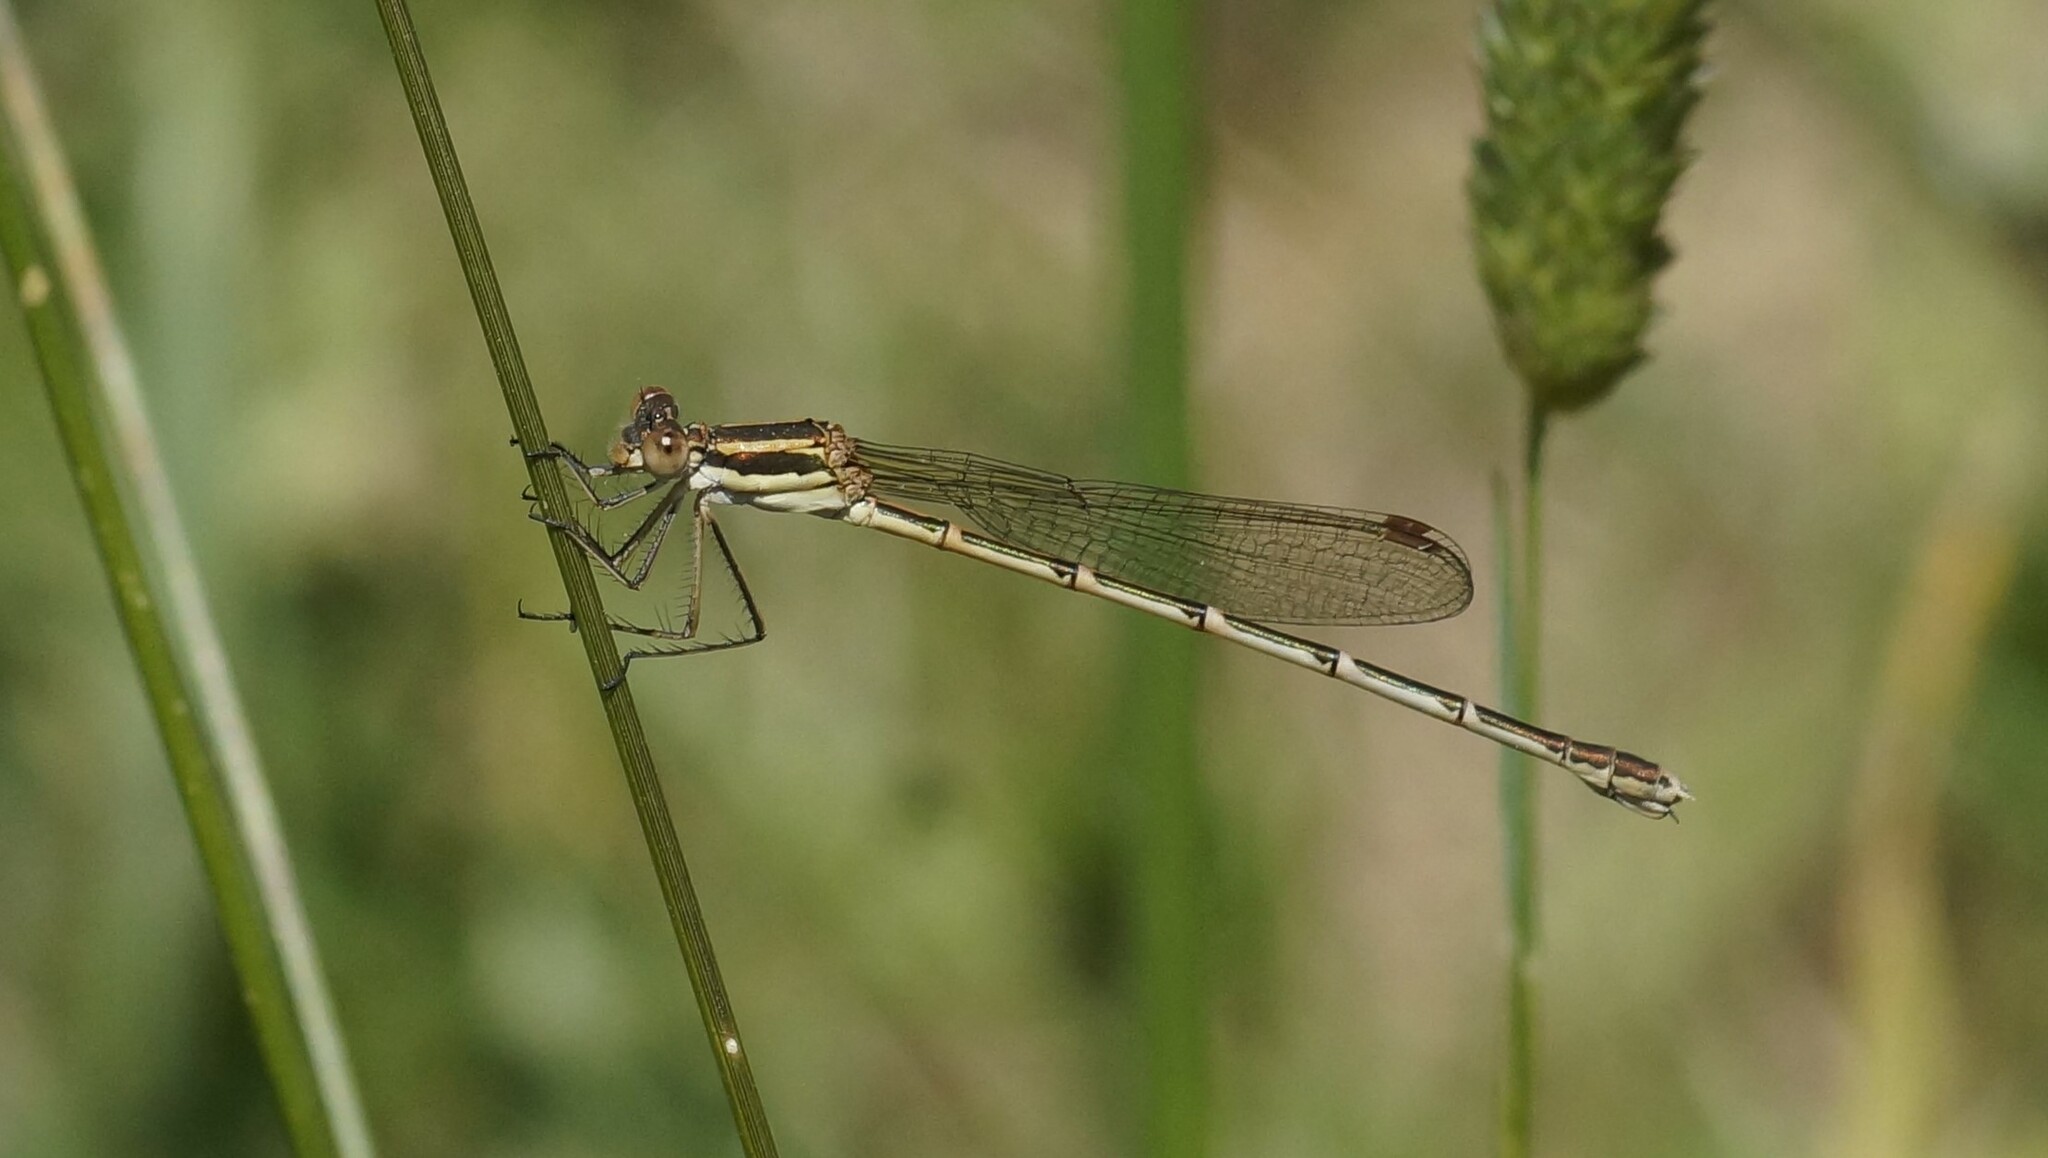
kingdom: Animalia
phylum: Arthropoda
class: Insecta
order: Odonata
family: Lestidae
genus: Austrolestes
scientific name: Austrolestes analis
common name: Slender ringtail
